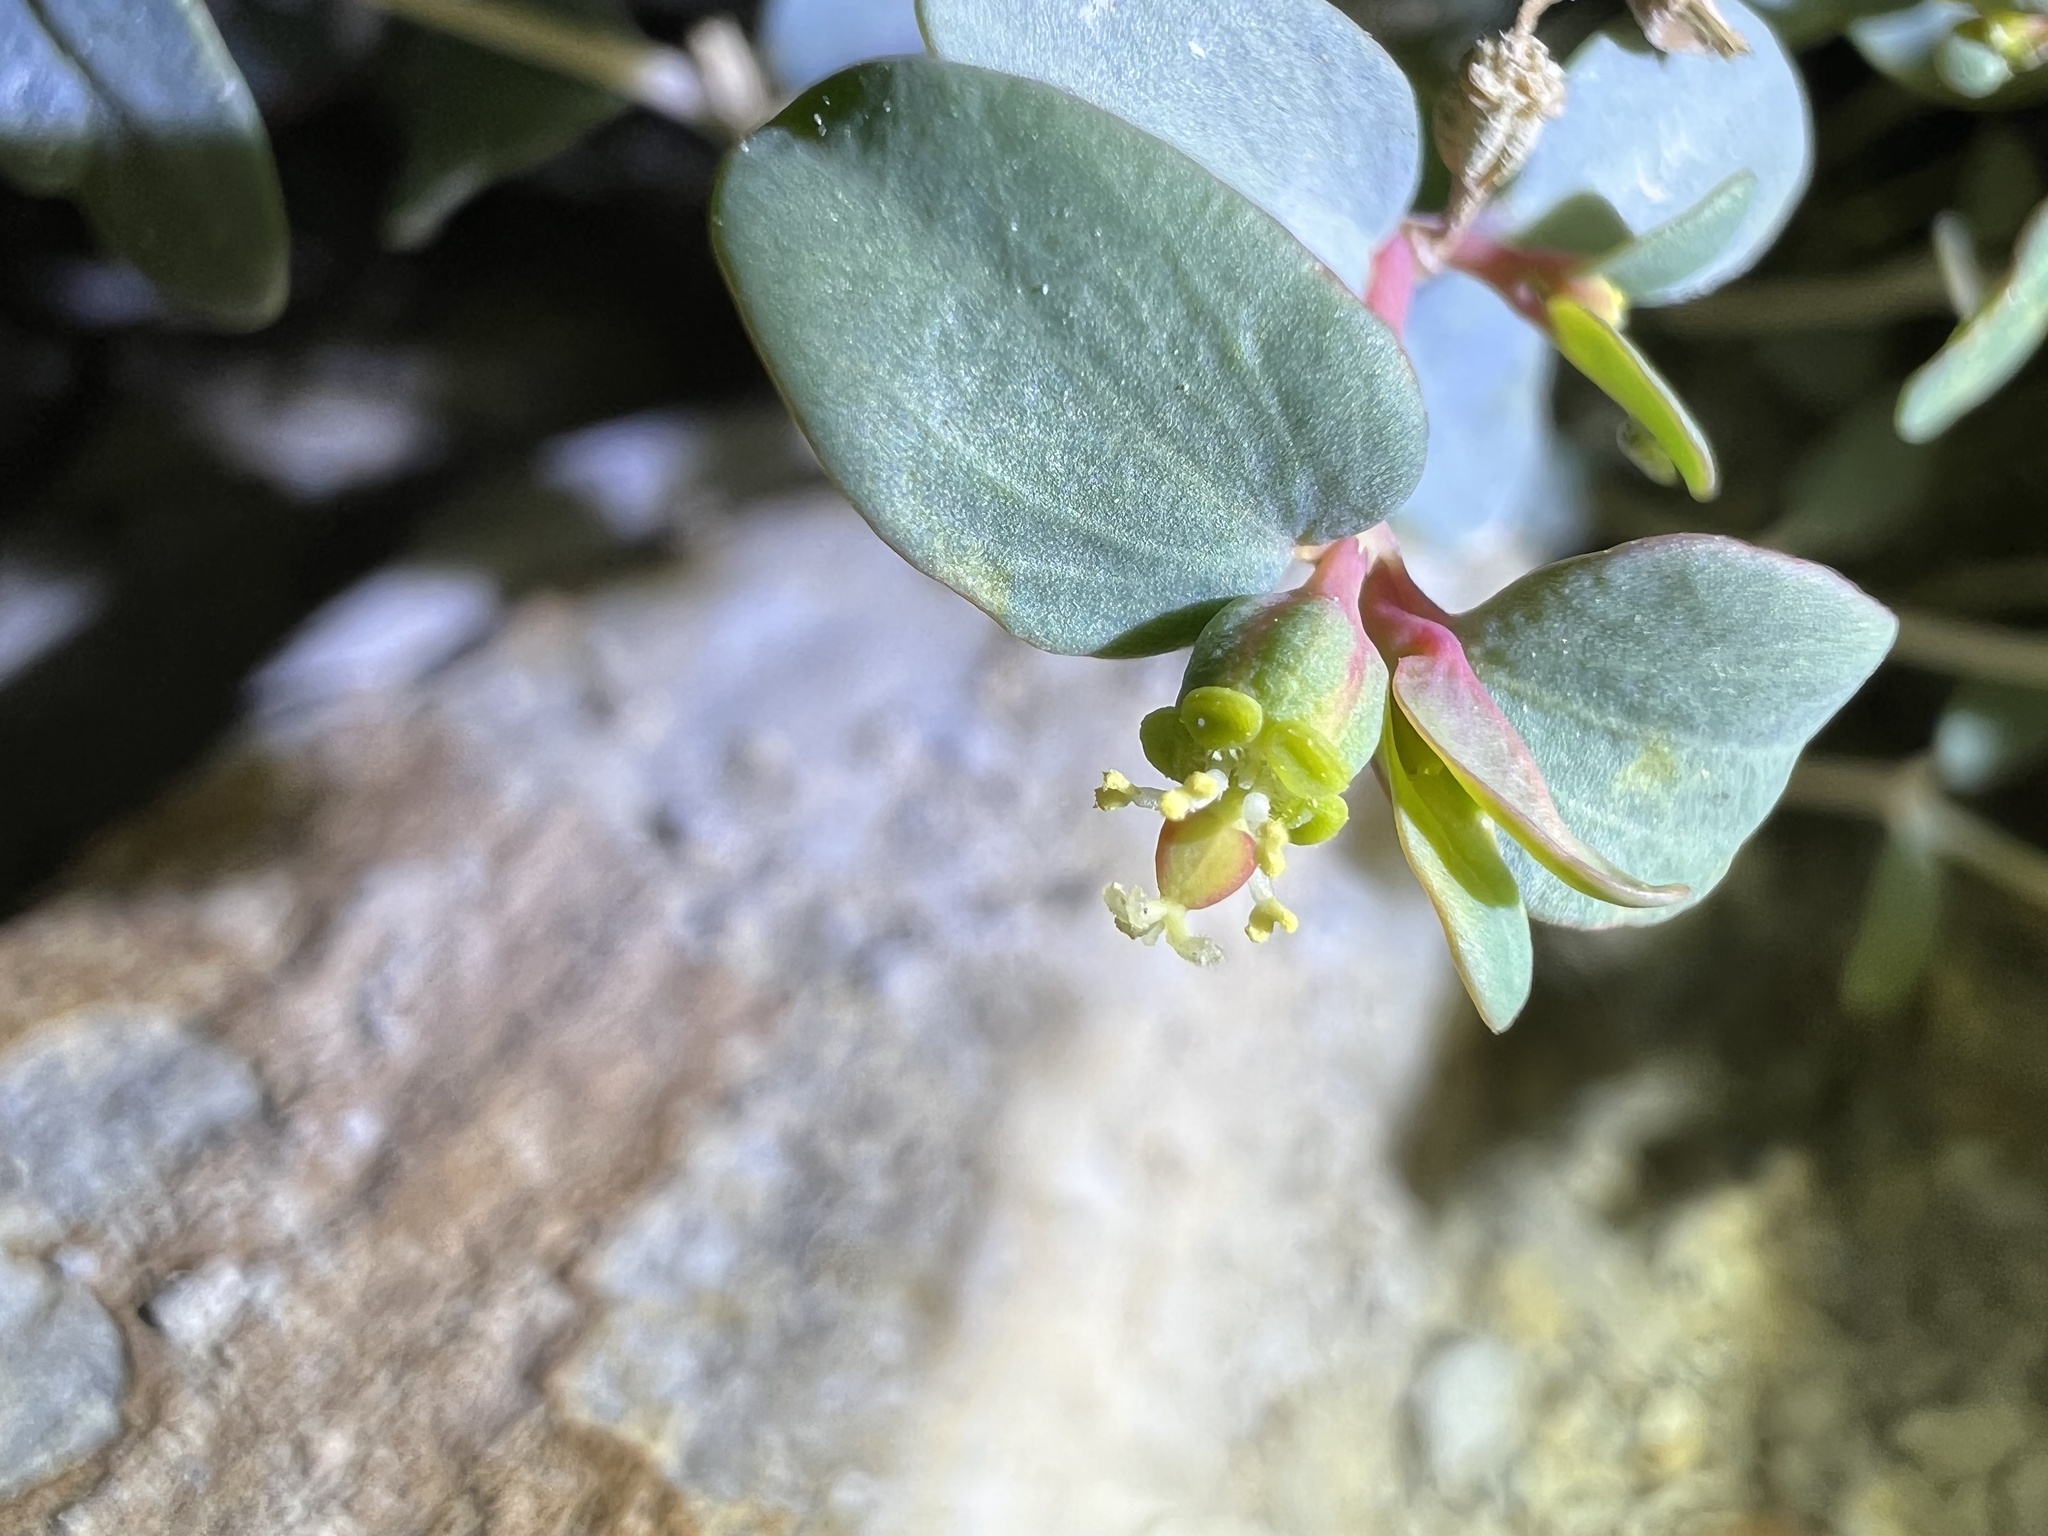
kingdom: Plantae
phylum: Tracheophyta
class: Magnoliopsida
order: Malpighiales
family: Euphorbiaceae
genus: Euphorbia
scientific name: Euphorbia perennans
